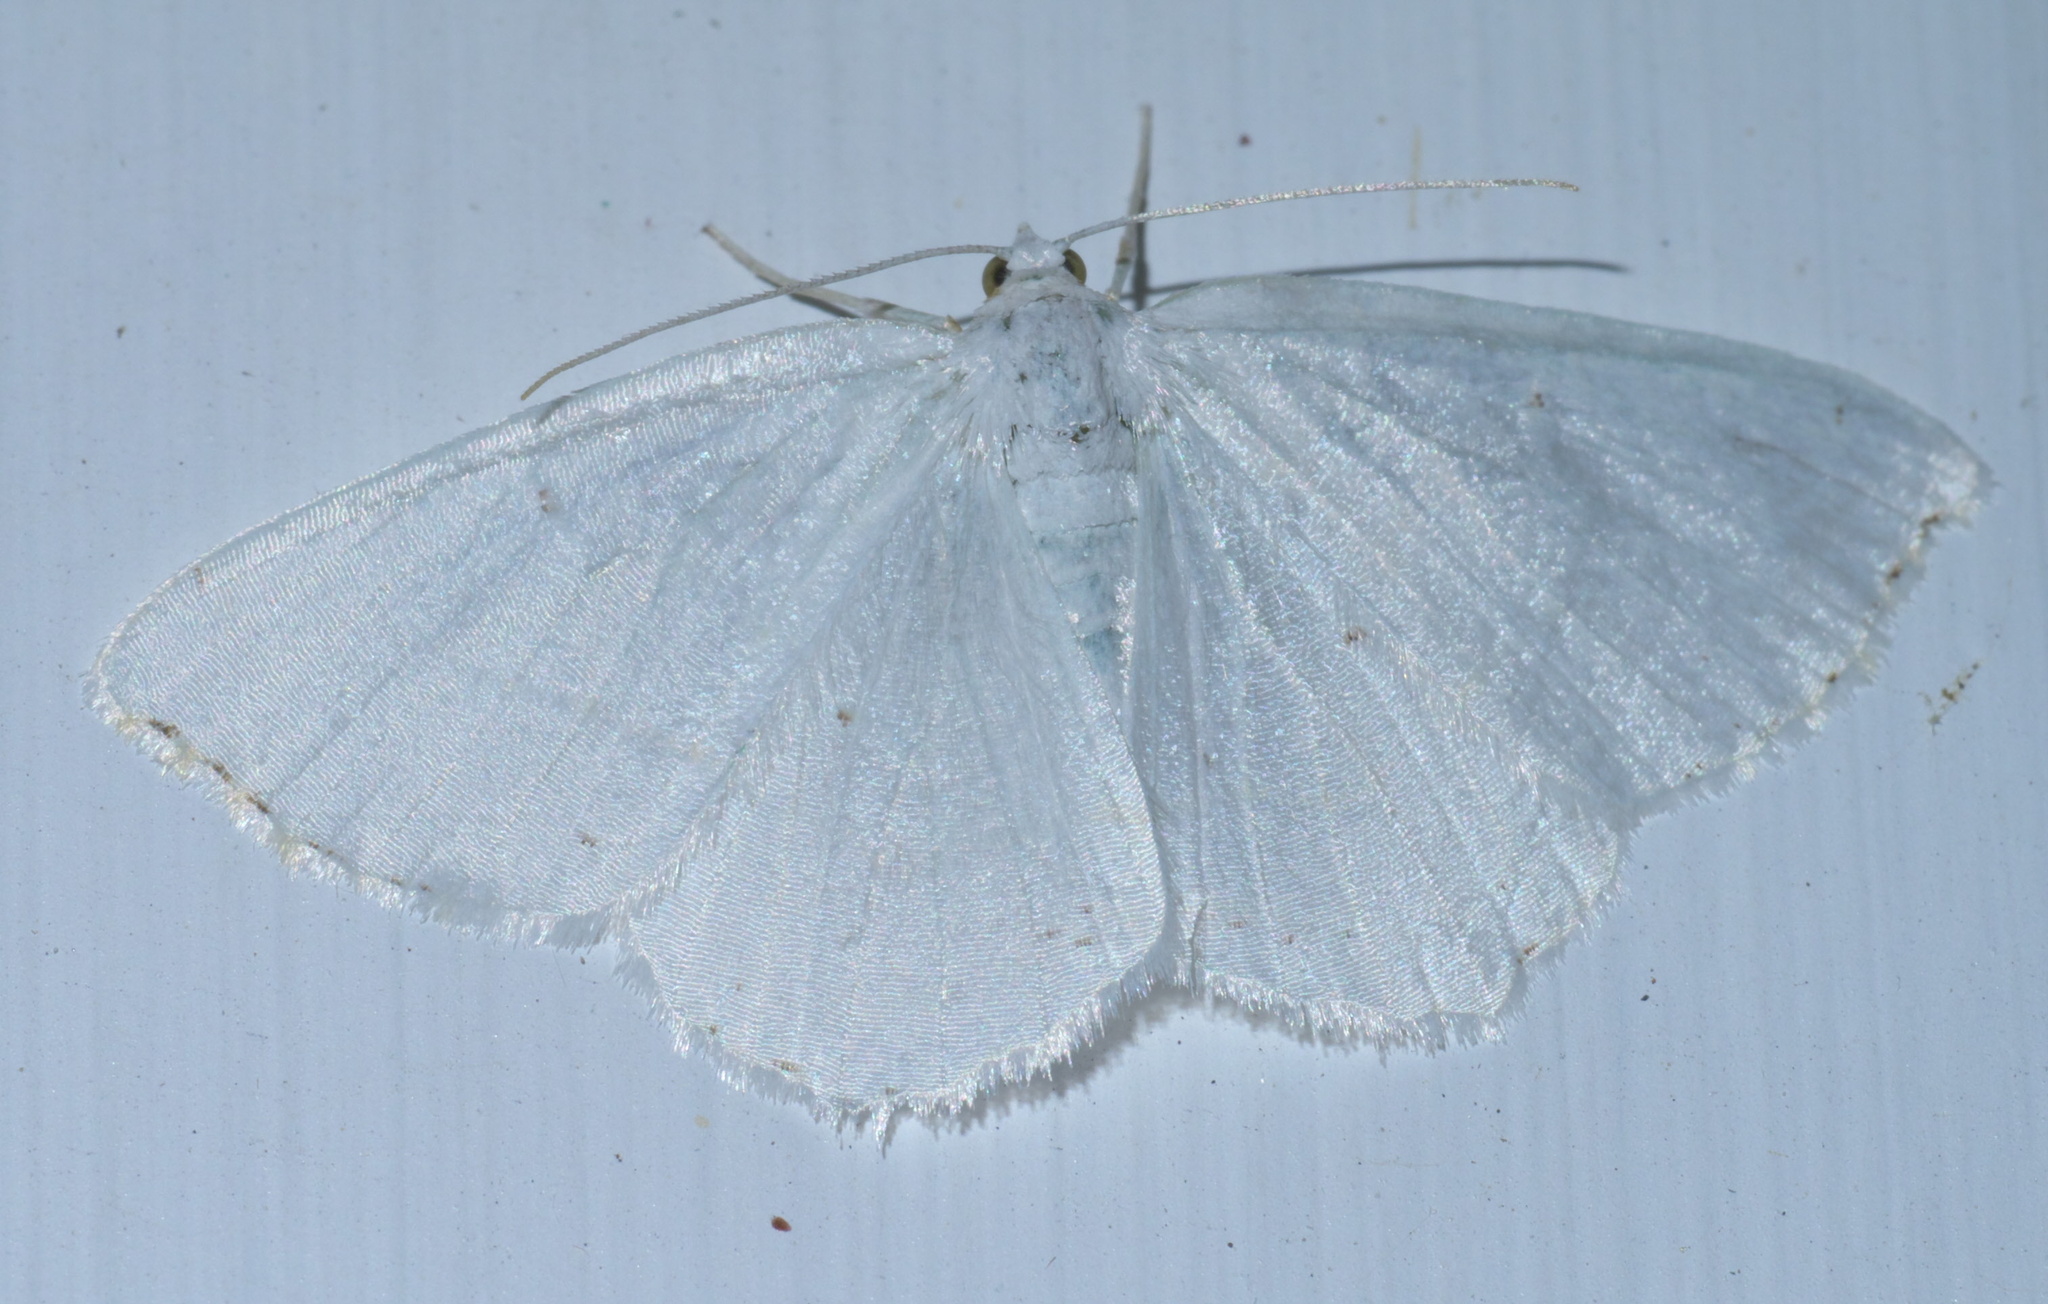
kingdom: Animalia
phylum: Arthropoda
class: Insecta
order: Lepidoptera
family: Geometridae
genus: Macaria
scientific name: Macaria pustularia
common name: Lesser maple spanworm moth
